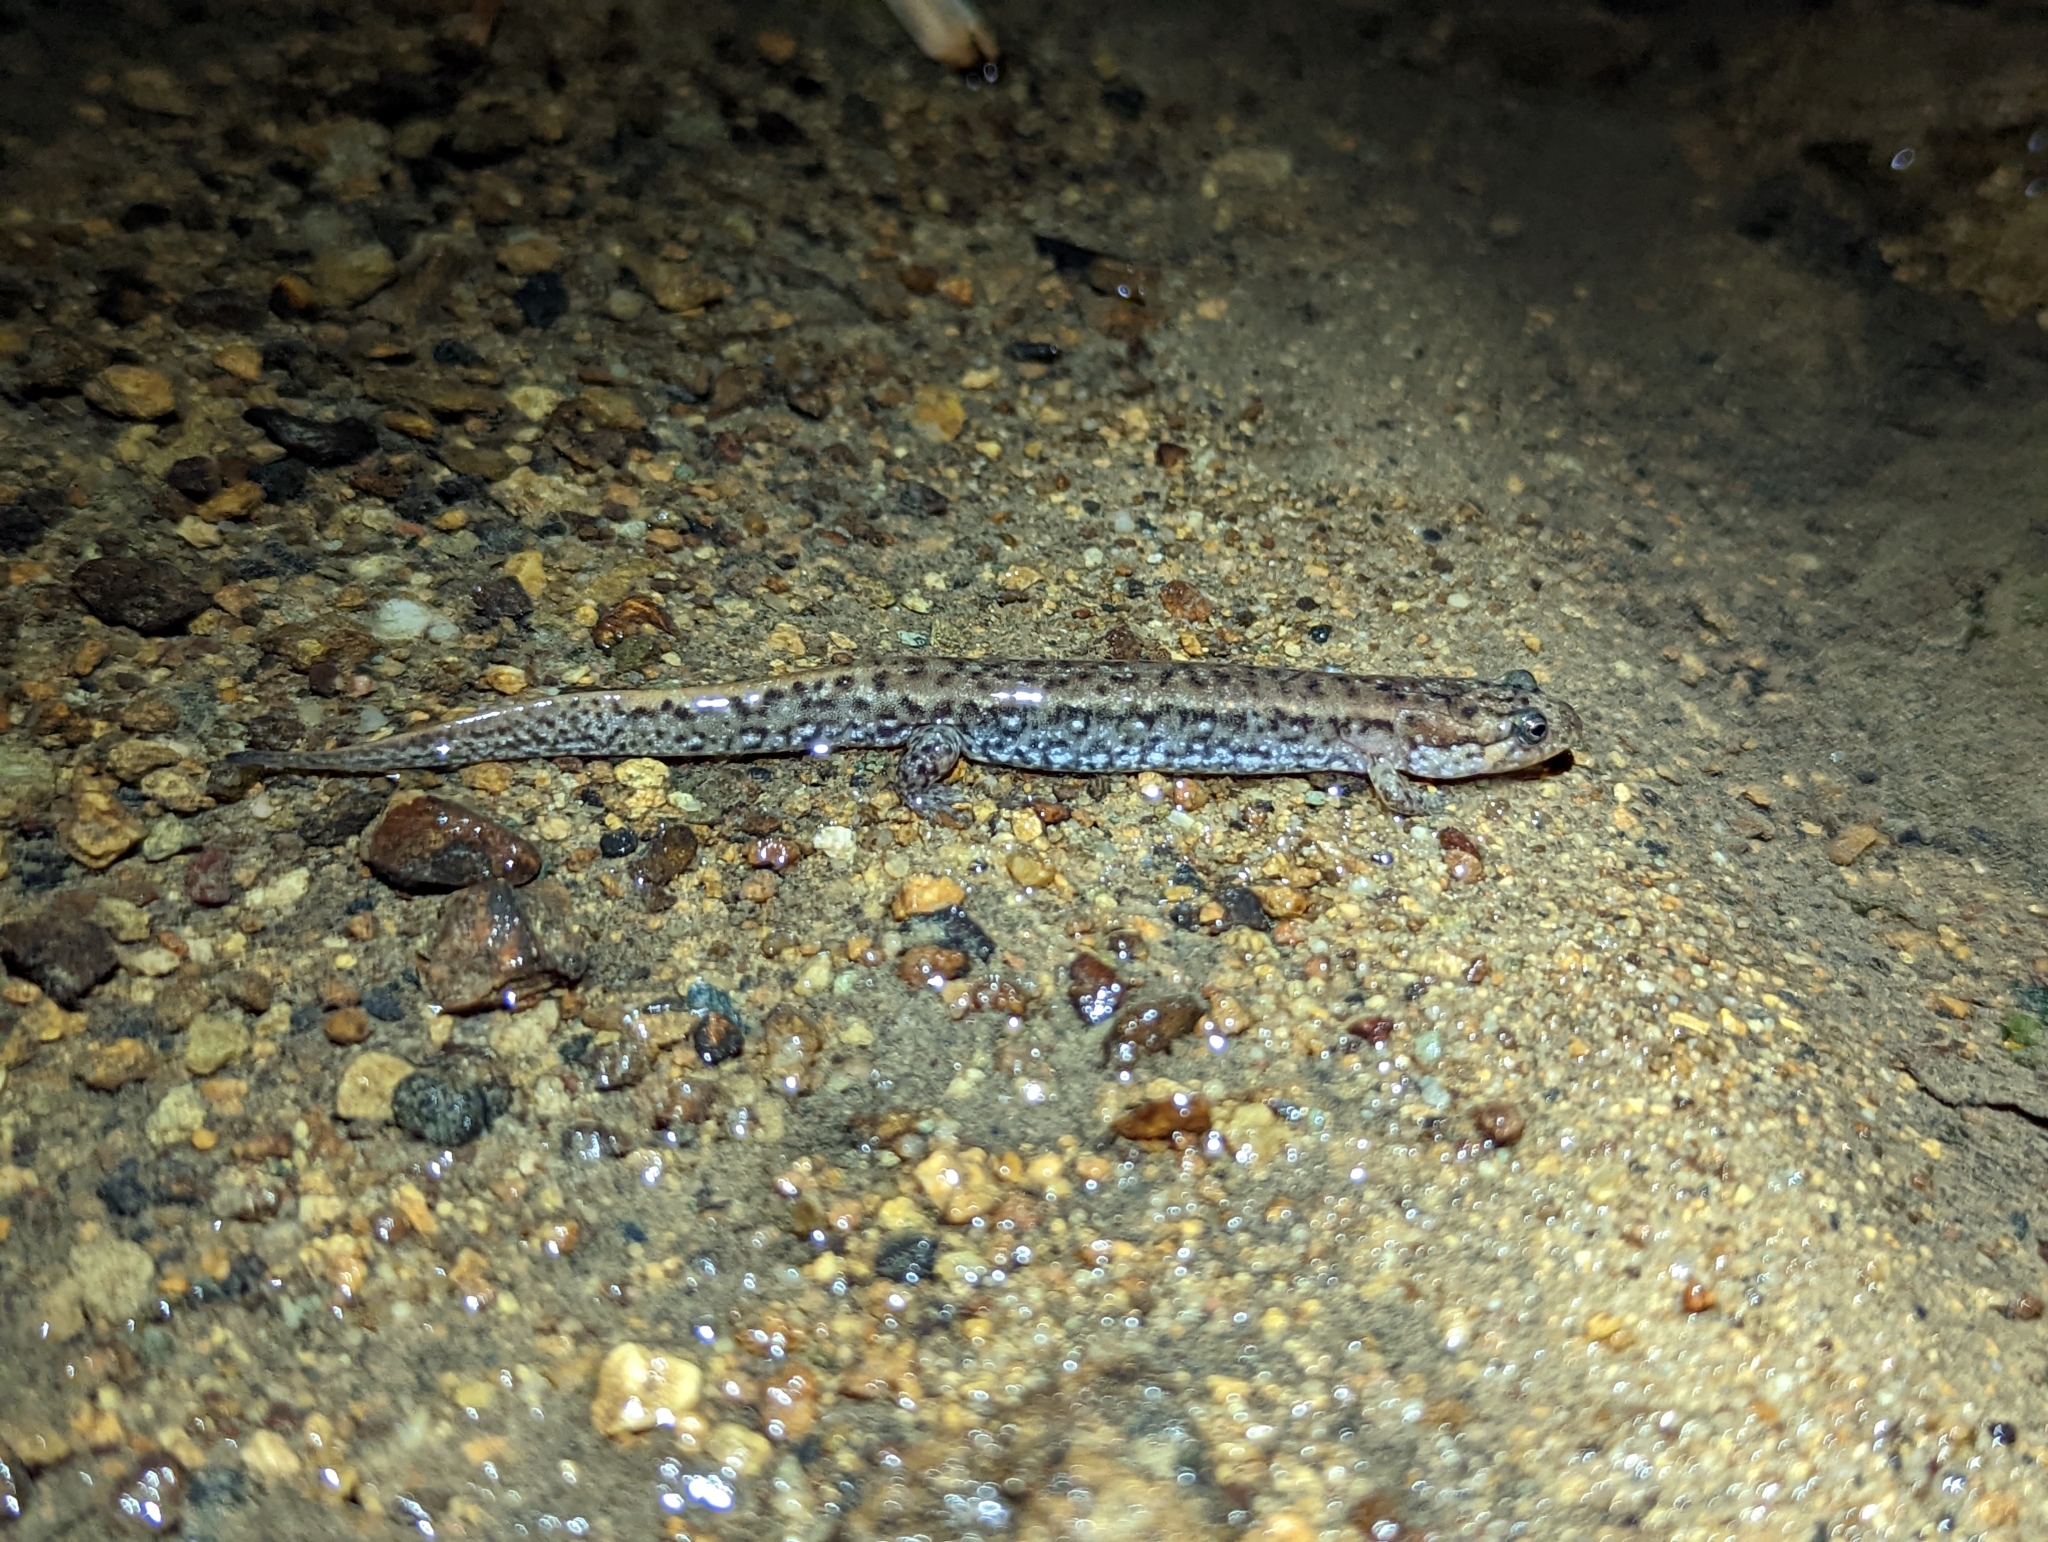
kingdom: Animalia
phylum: Chordata
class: Amphibia
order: Caudata
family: Plethodontidae
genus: Desmognathus
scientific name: Desmognathus
